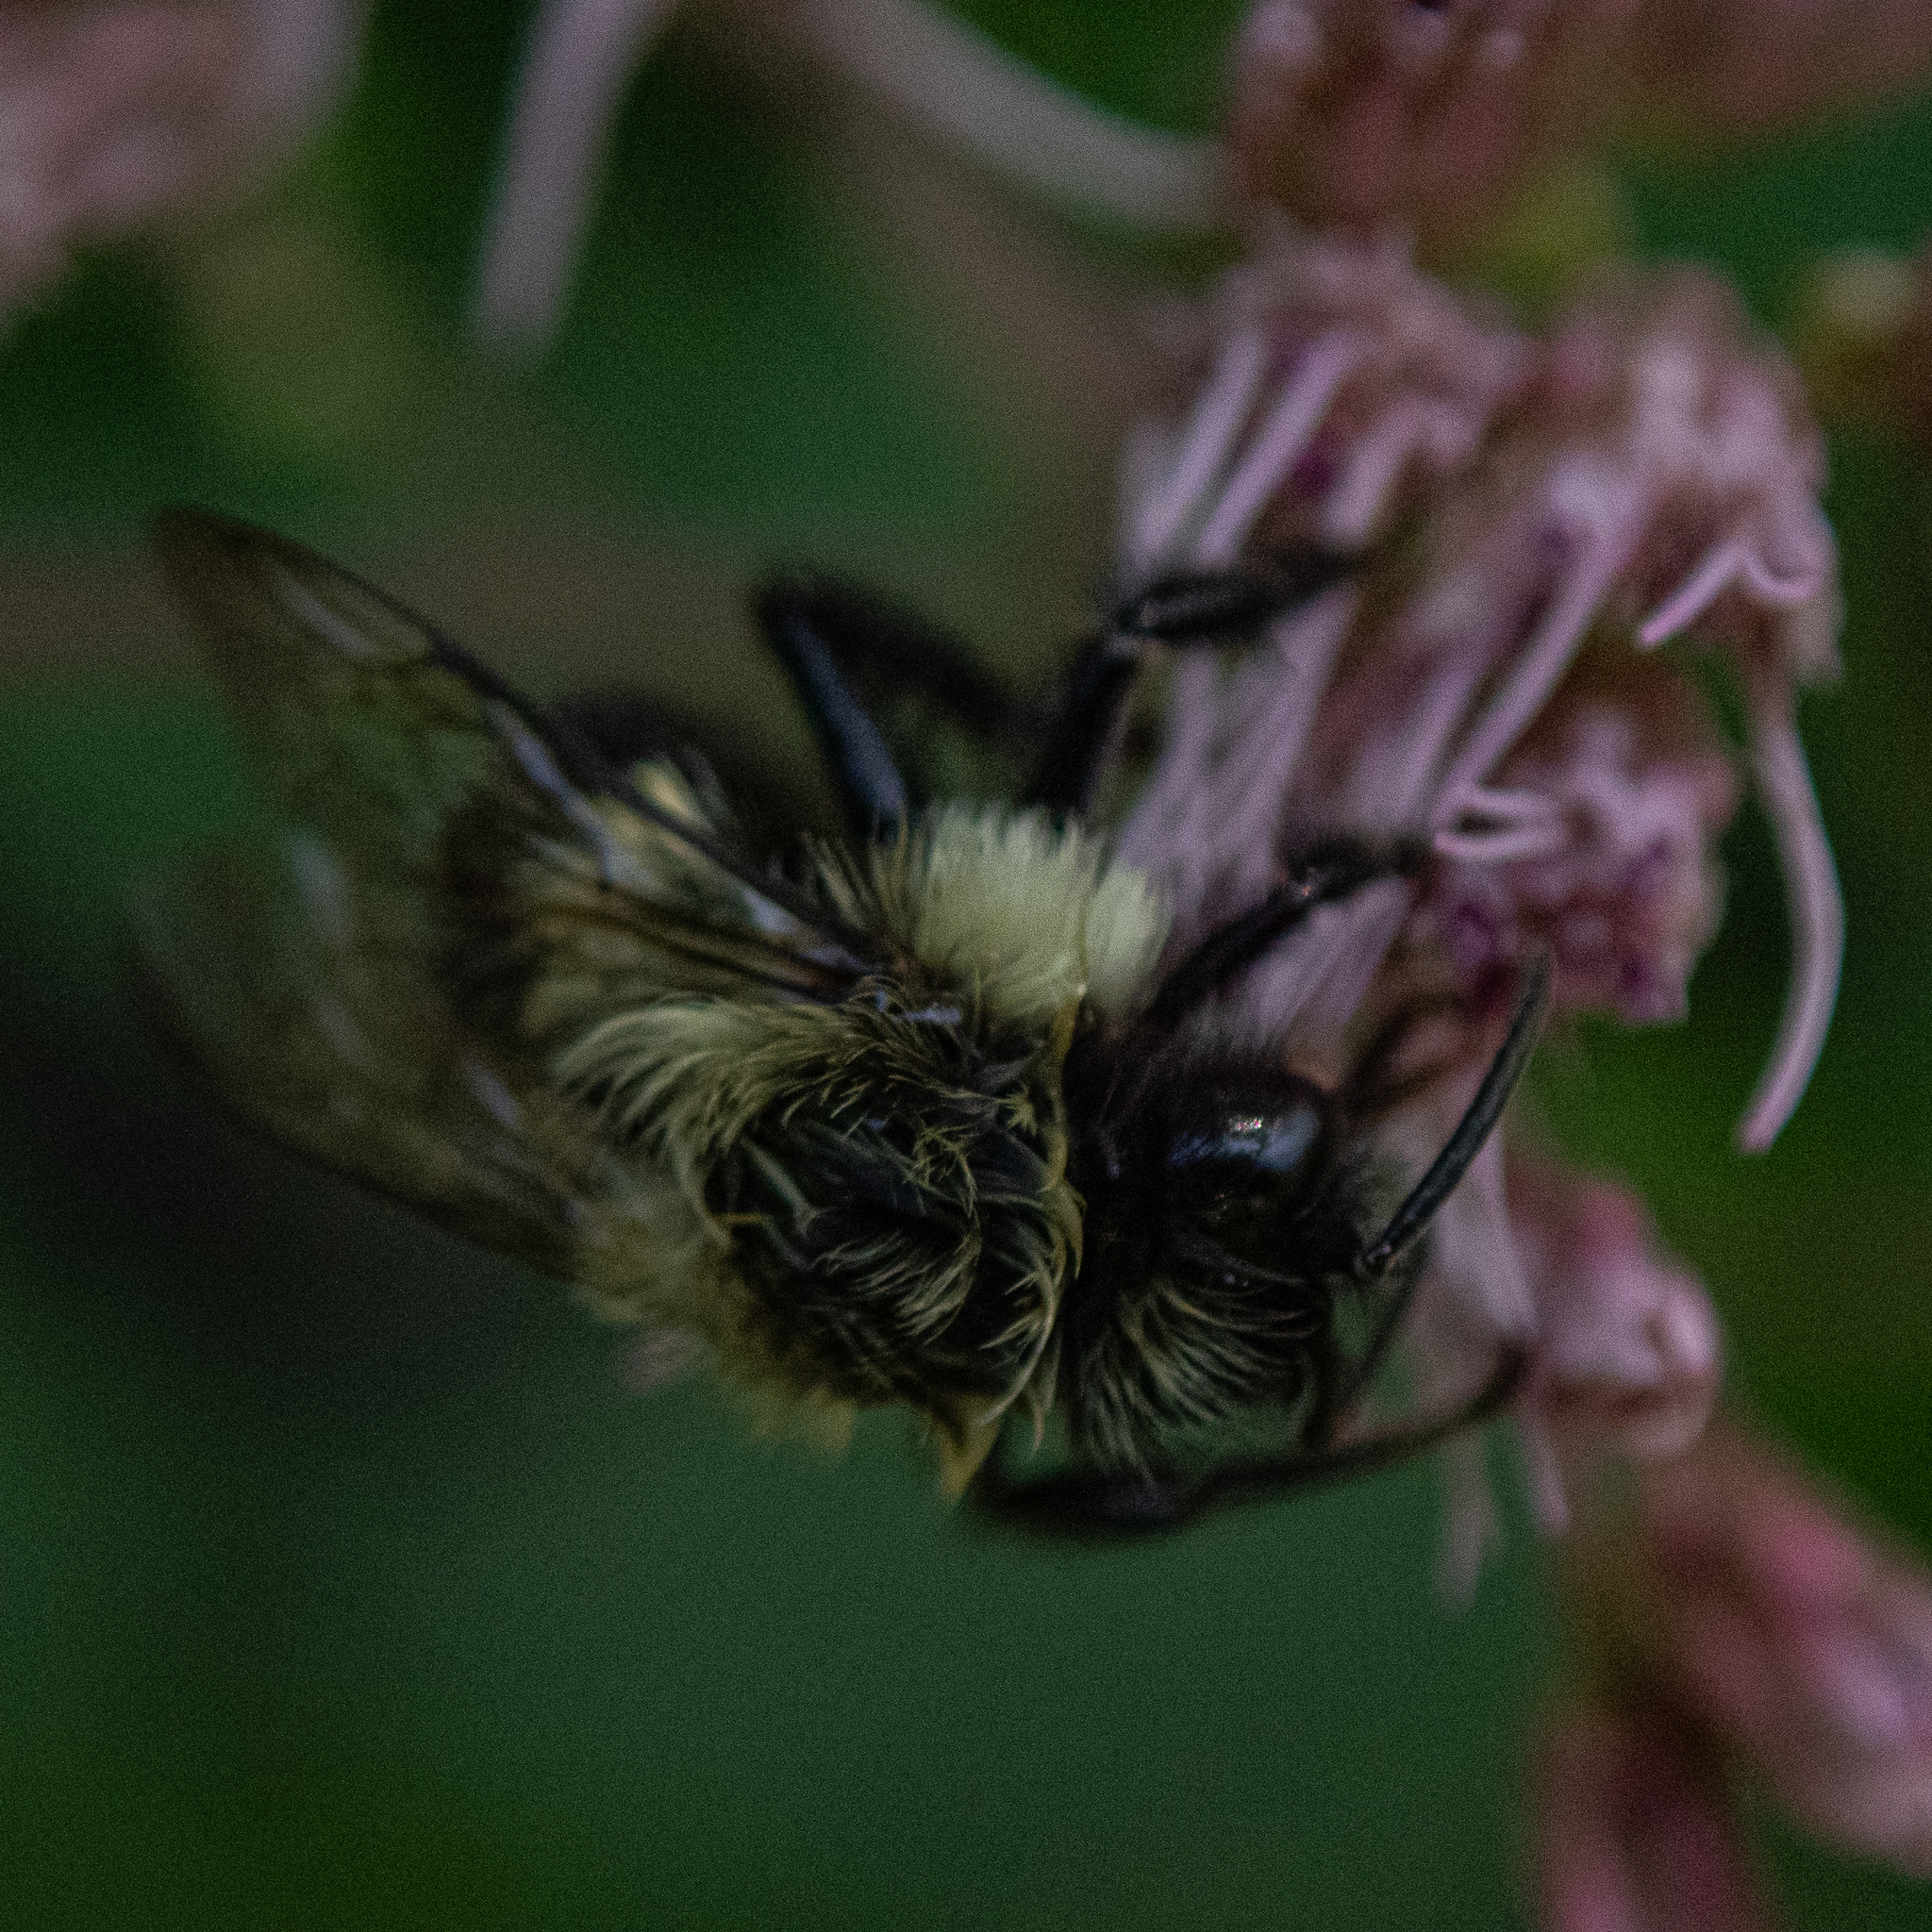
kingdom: Animalia
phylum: Arthropoda
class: Insecta
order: Hymenoptera
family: Apidae
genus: Bombus
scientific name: Bombus impatiens
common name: Common eastern bumble bee
